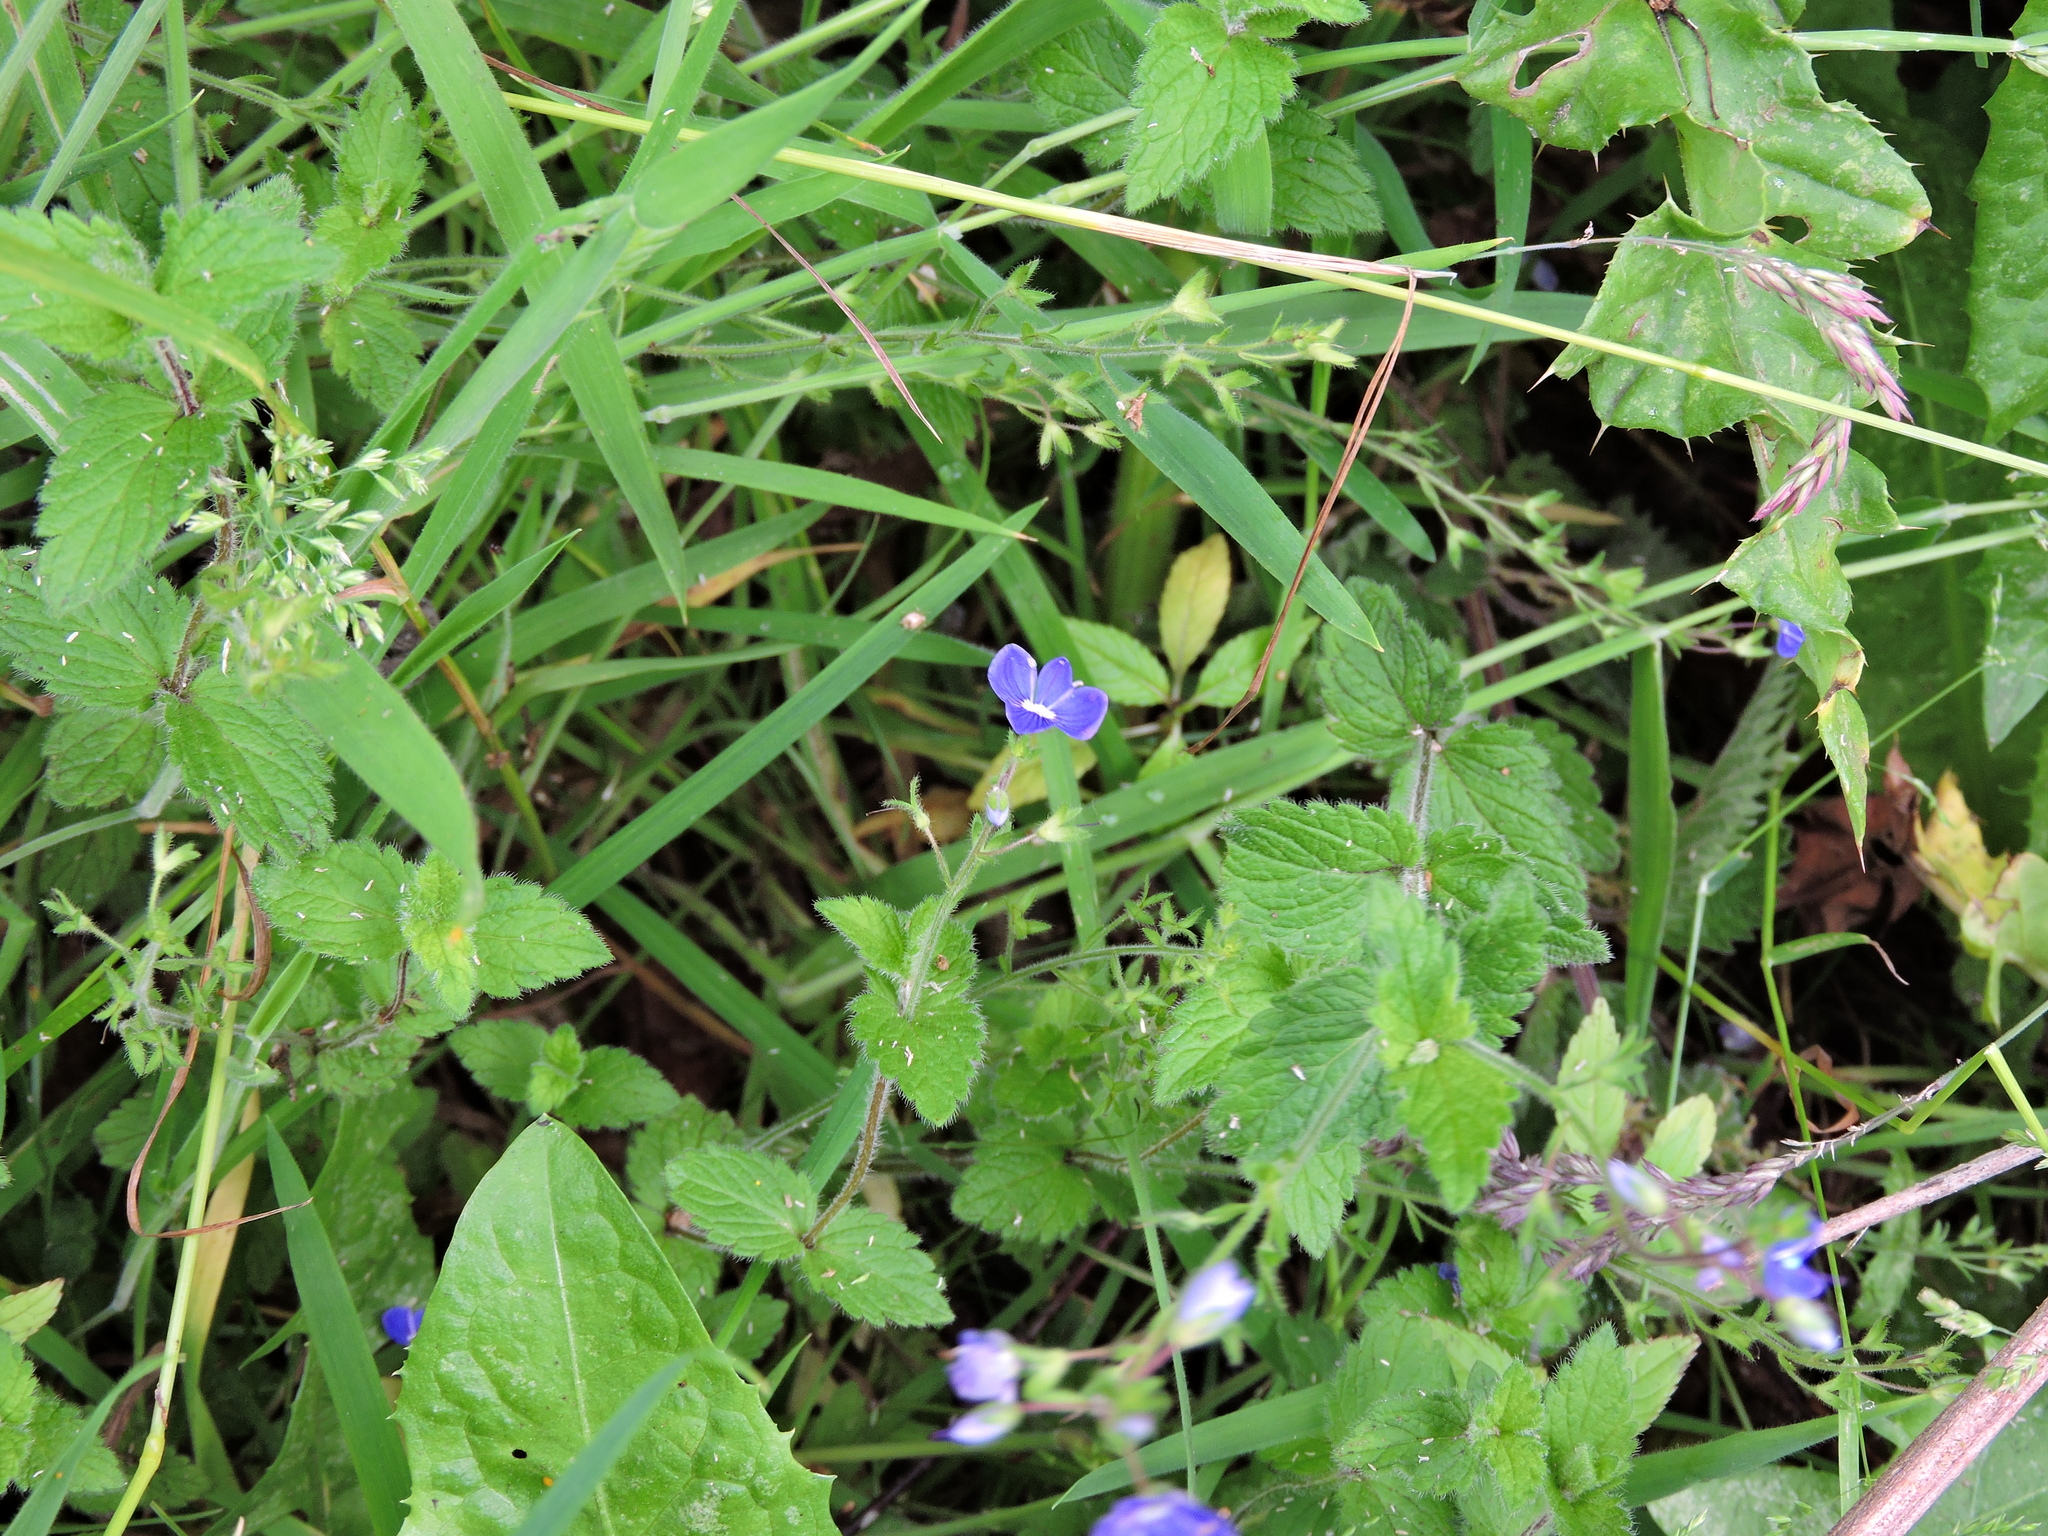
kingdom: Plantae
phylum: Tracheophyta
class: Magnoliopsida
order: Lamiales
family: Plantaginaceae
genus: Veronica
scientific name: Veronica chamaedrys
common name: Germander speedwell
